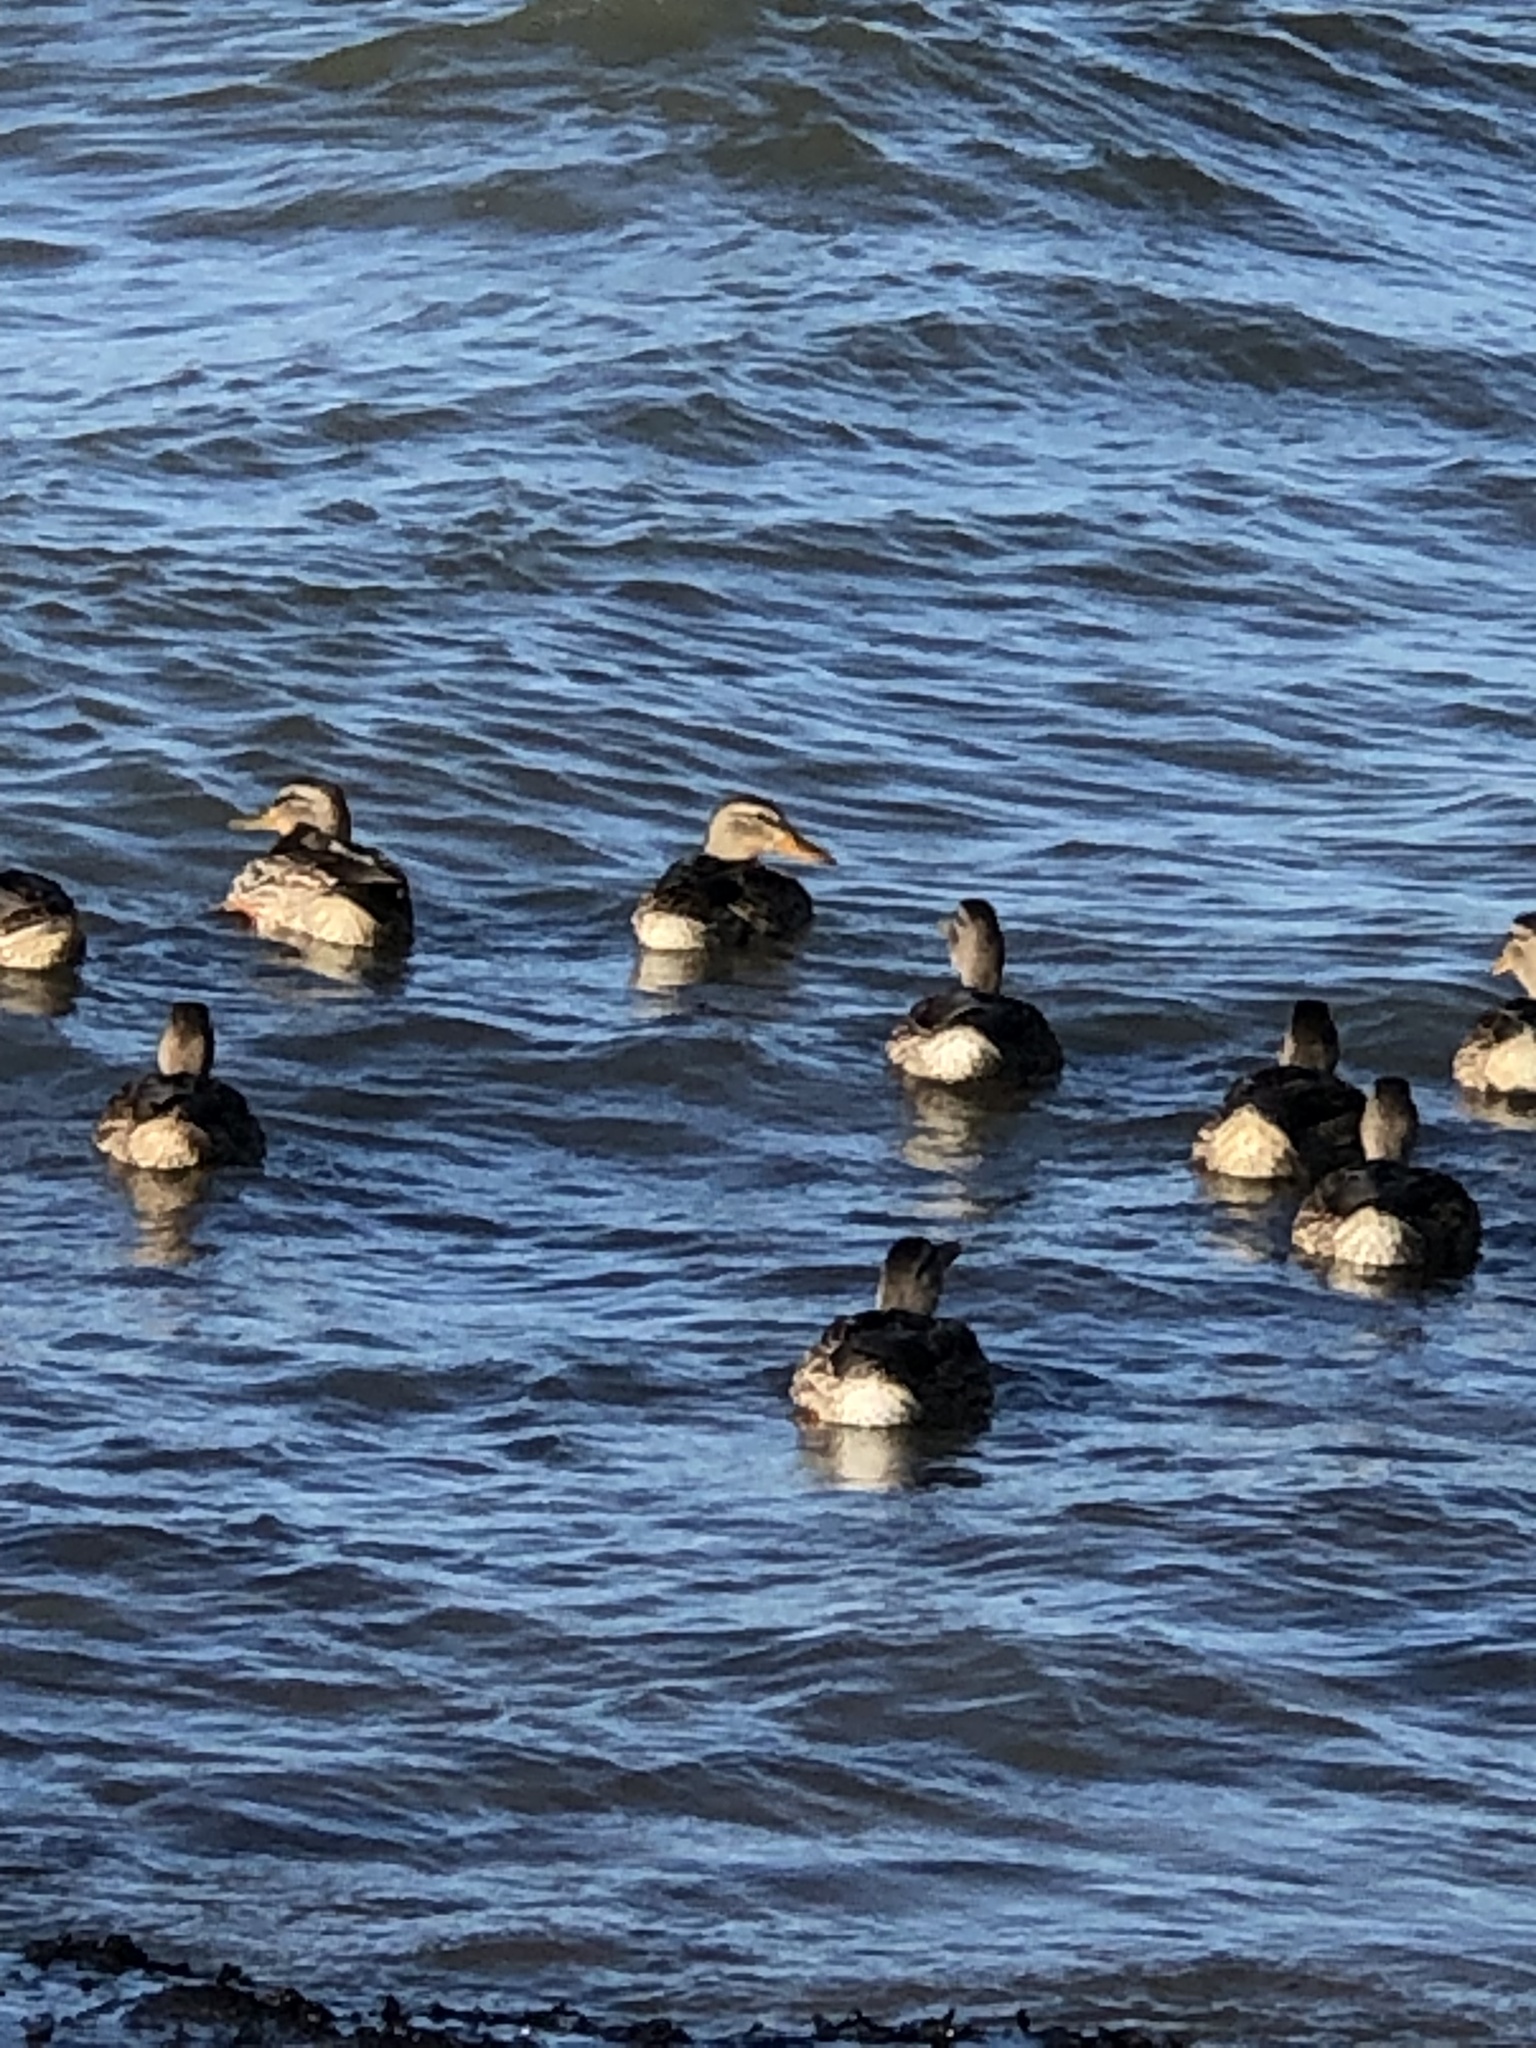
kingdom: Animalia
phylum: Chordata
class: Aves
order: Anseriformes
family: Anatidae
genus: Anas
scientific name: Anas platyrhynchos
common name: Mallard
